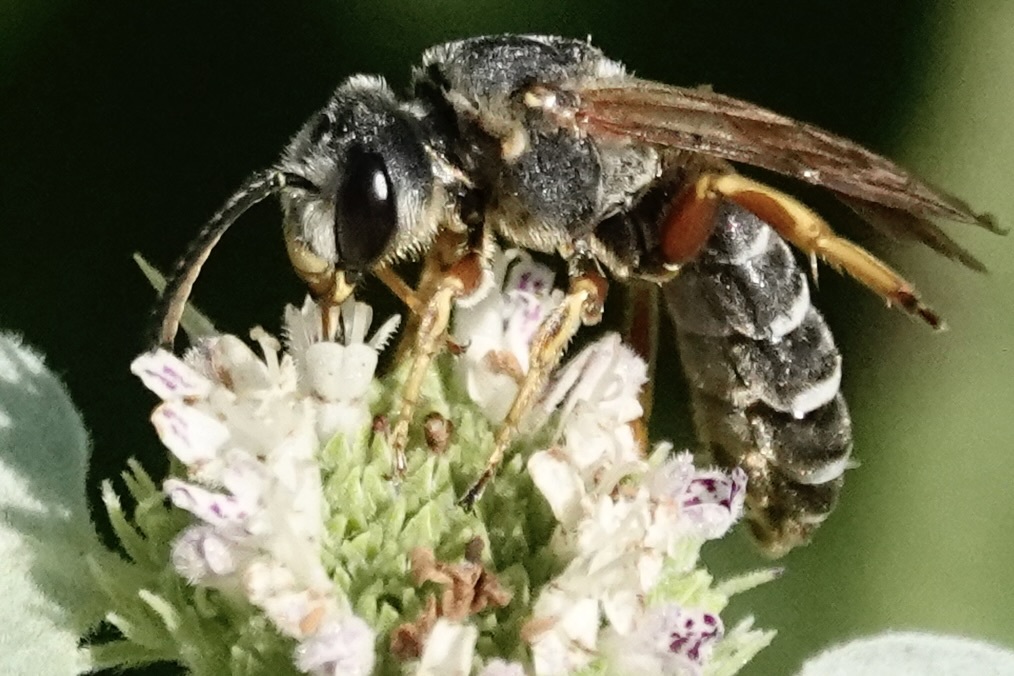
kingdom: Animalia
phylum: Arthropoda
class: Insecta
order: Hymenoptera
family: Halictidae
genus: Halictus
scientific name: Halictus parallelus
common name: Parallel-striped sweat bee
